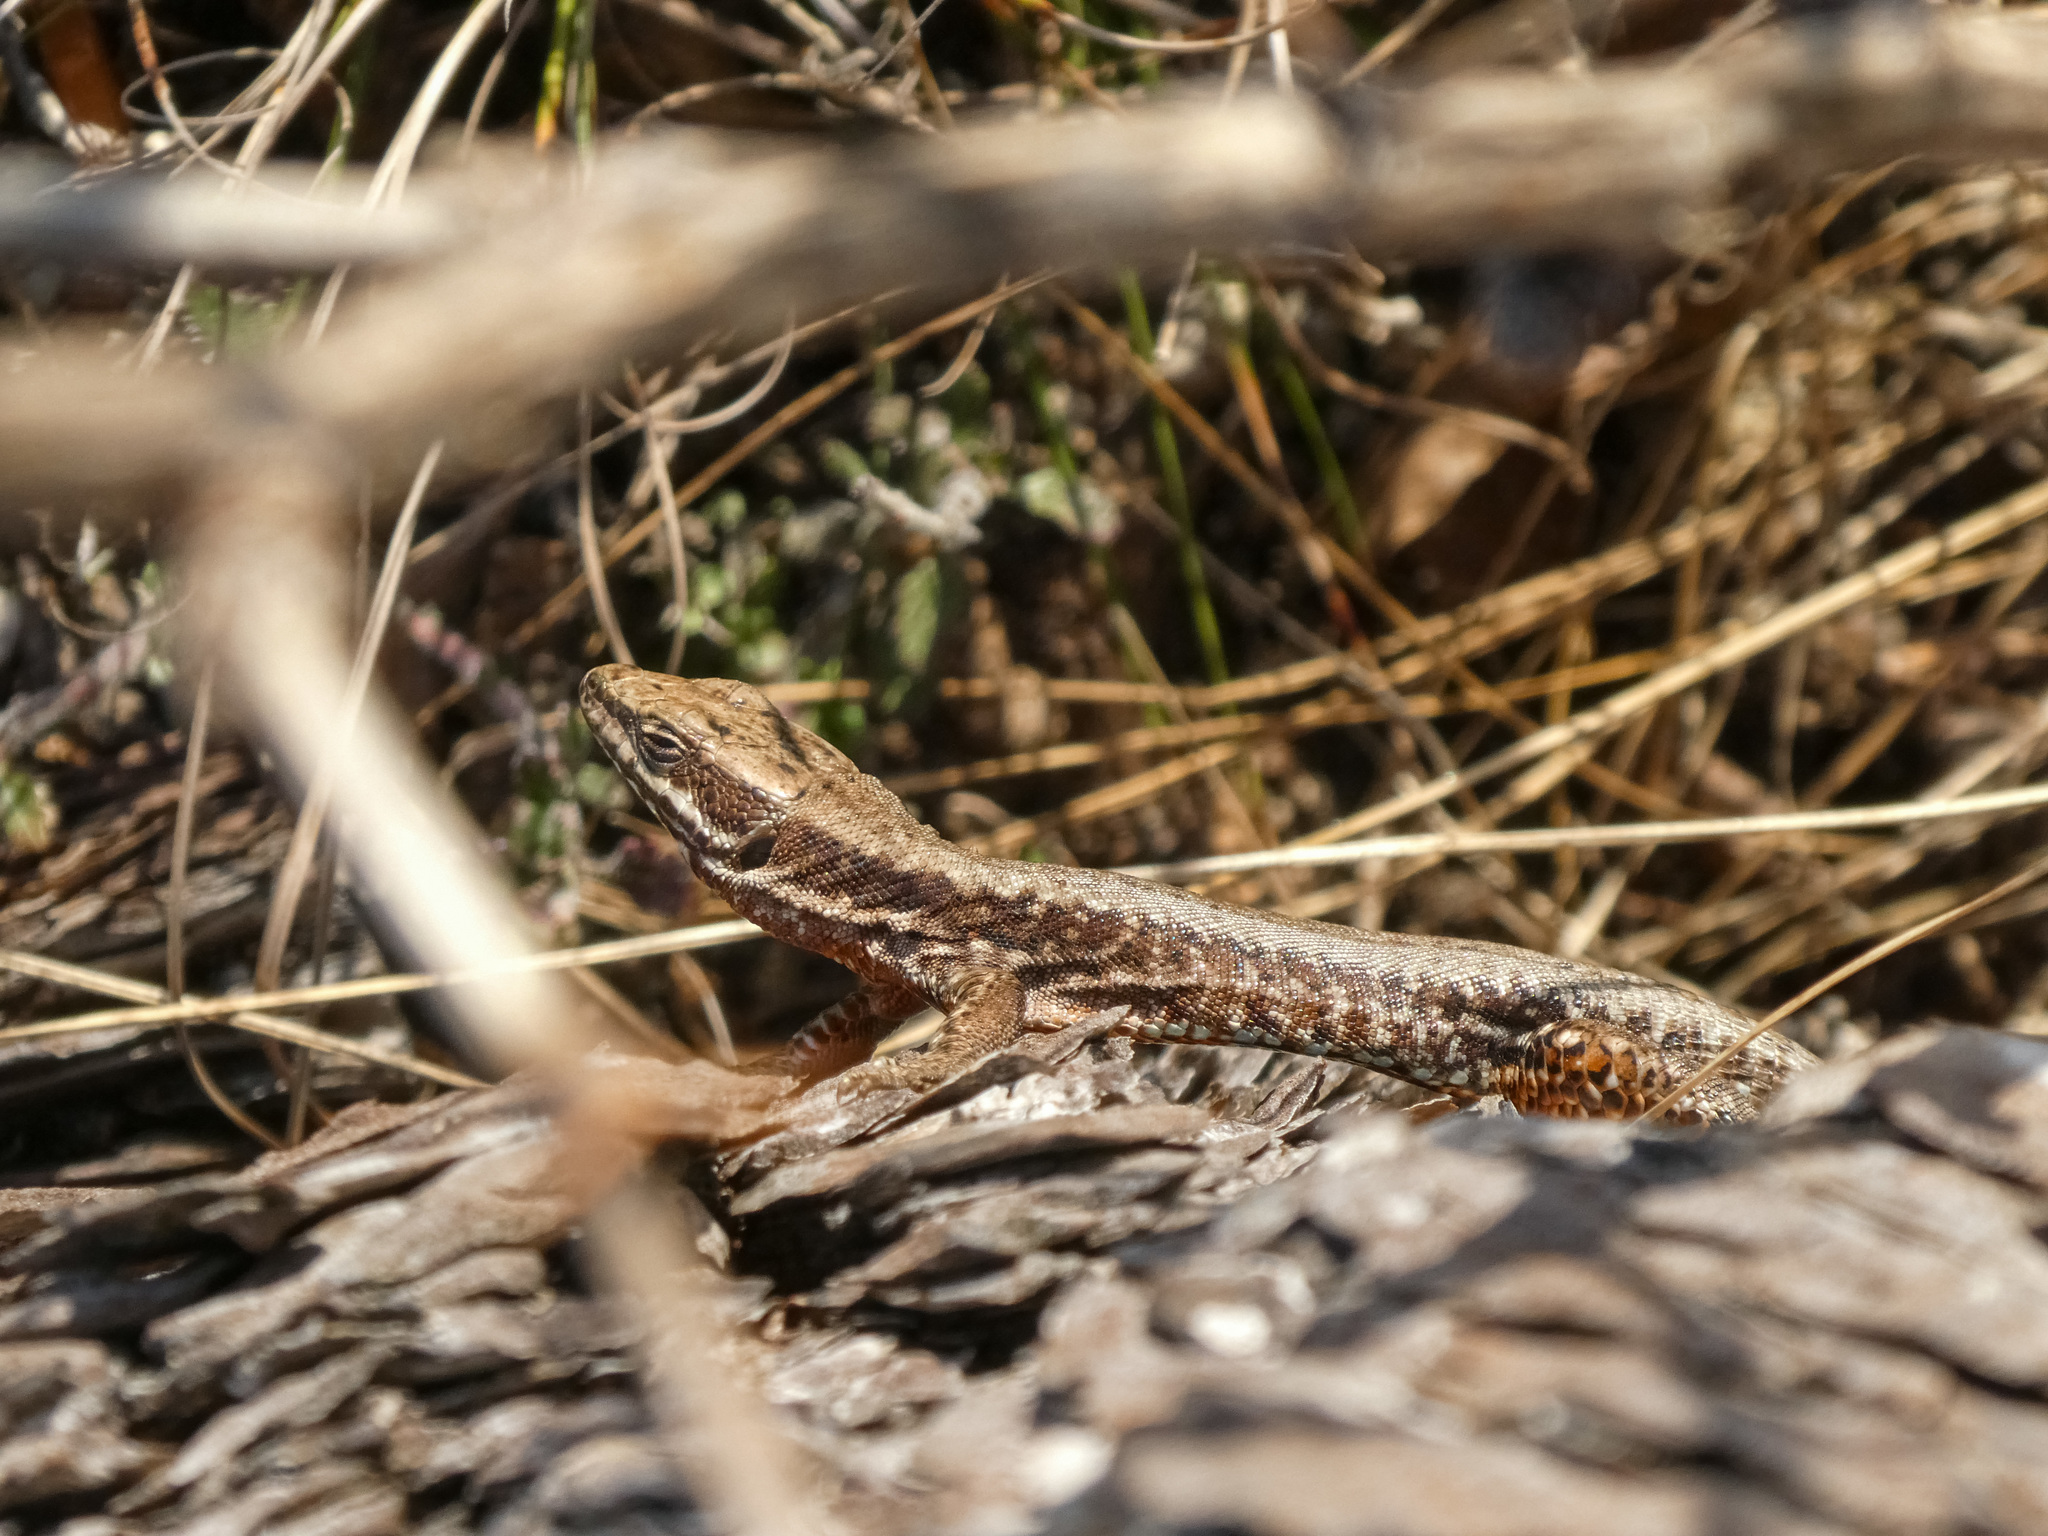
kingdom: Animalia
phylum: Chordata
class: Squamata
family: Lacertidae
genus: Podarcis
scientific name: Podarcis muralis
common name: Common wall lizard
